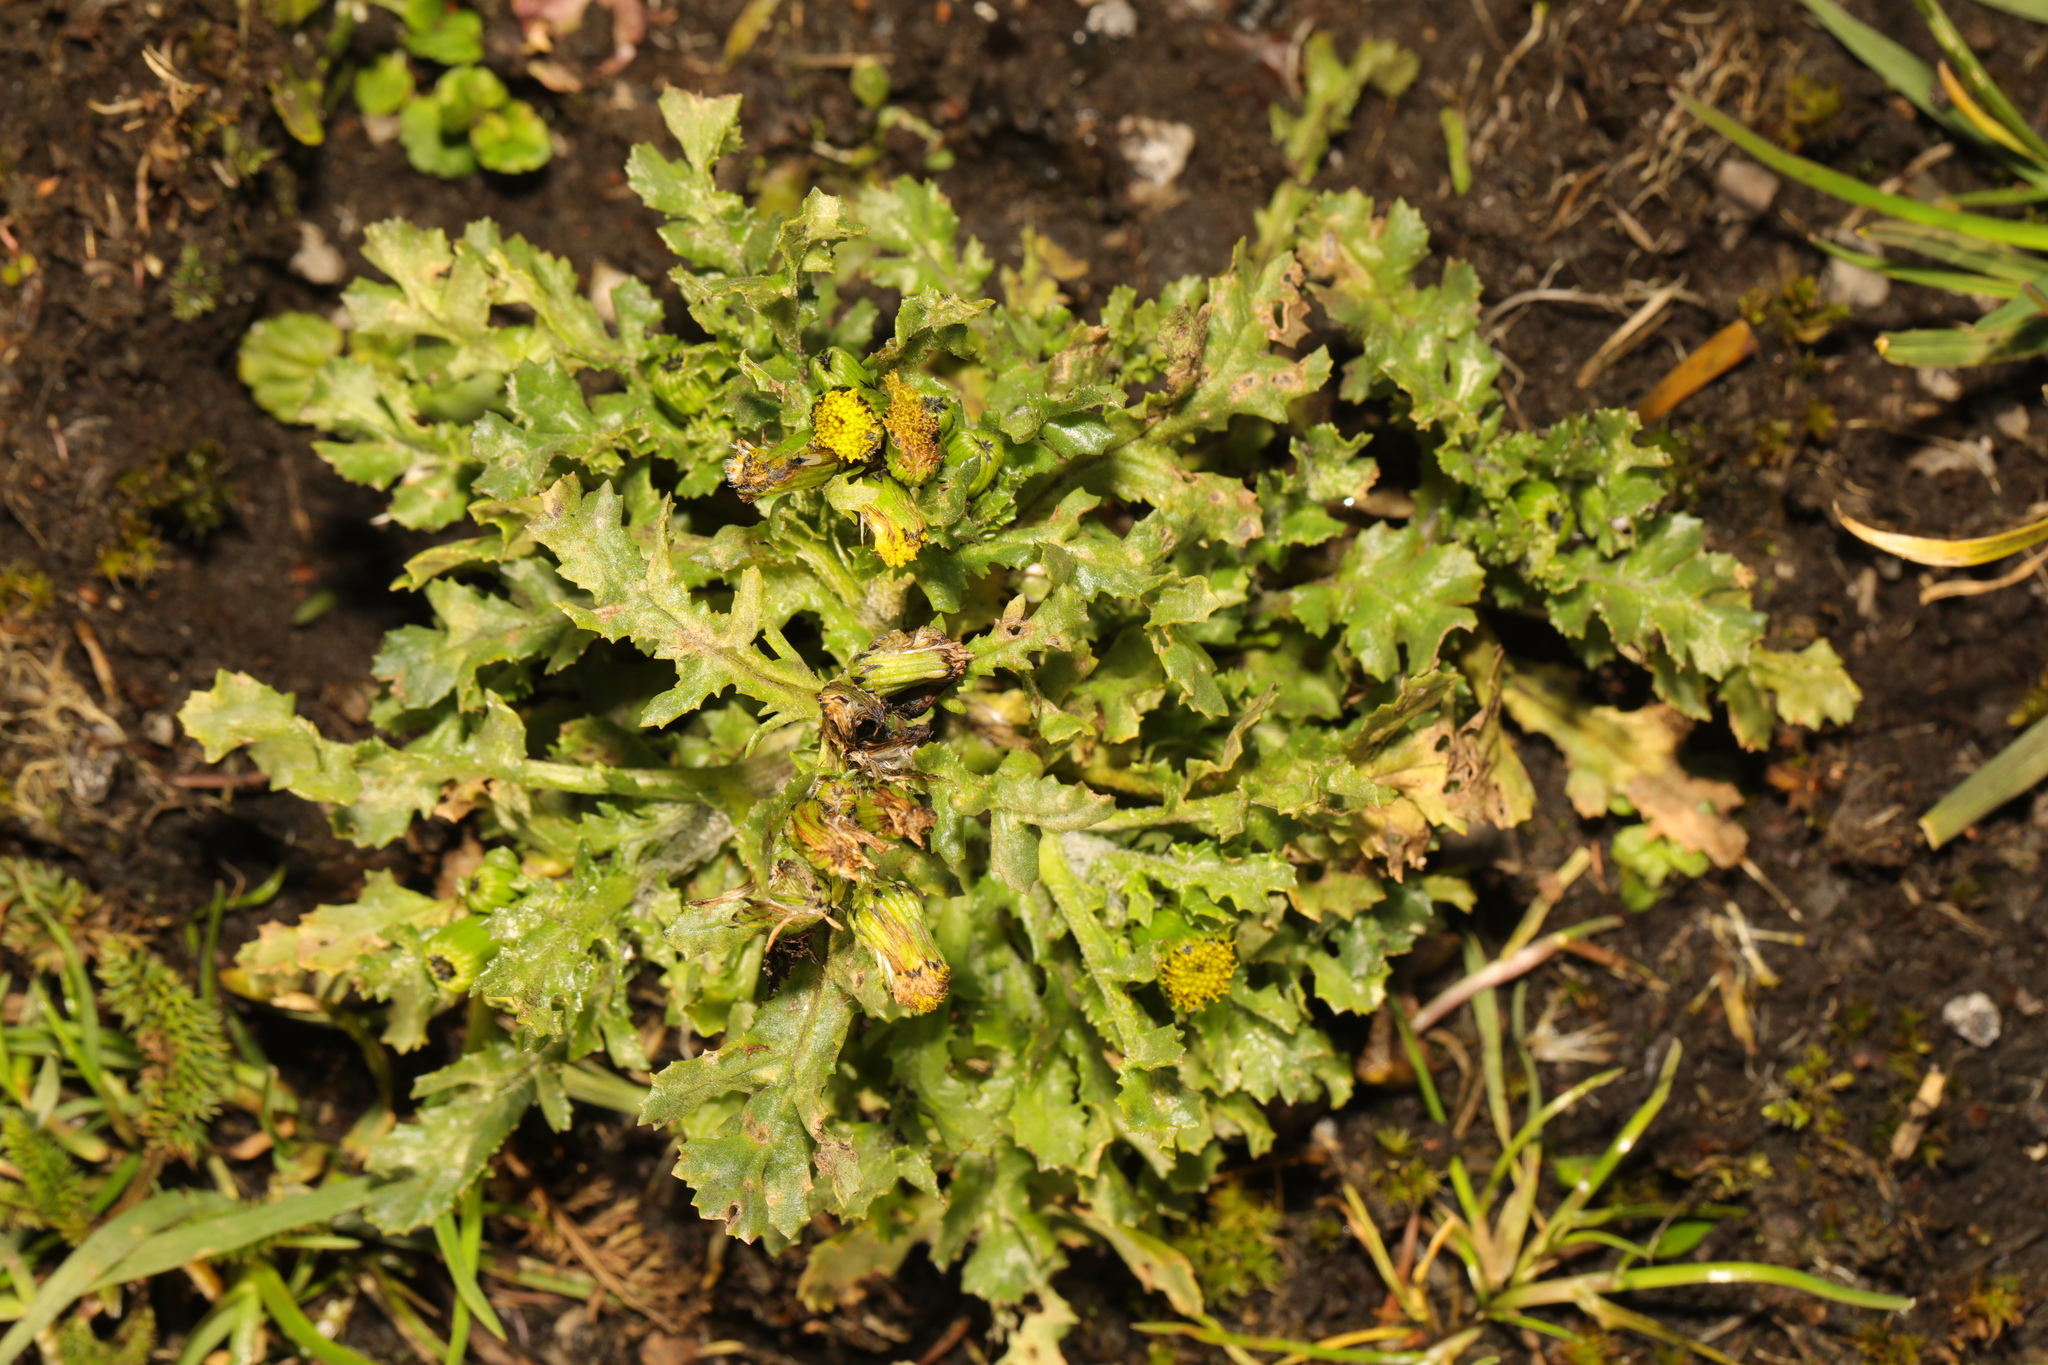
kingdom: Plantae
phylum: Tracheophyta
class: Magnoliopsida
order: Asterales
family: Asteraceae
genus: Senecio
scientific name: Senecio vulgaris
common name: Old-man-in-the-spring
